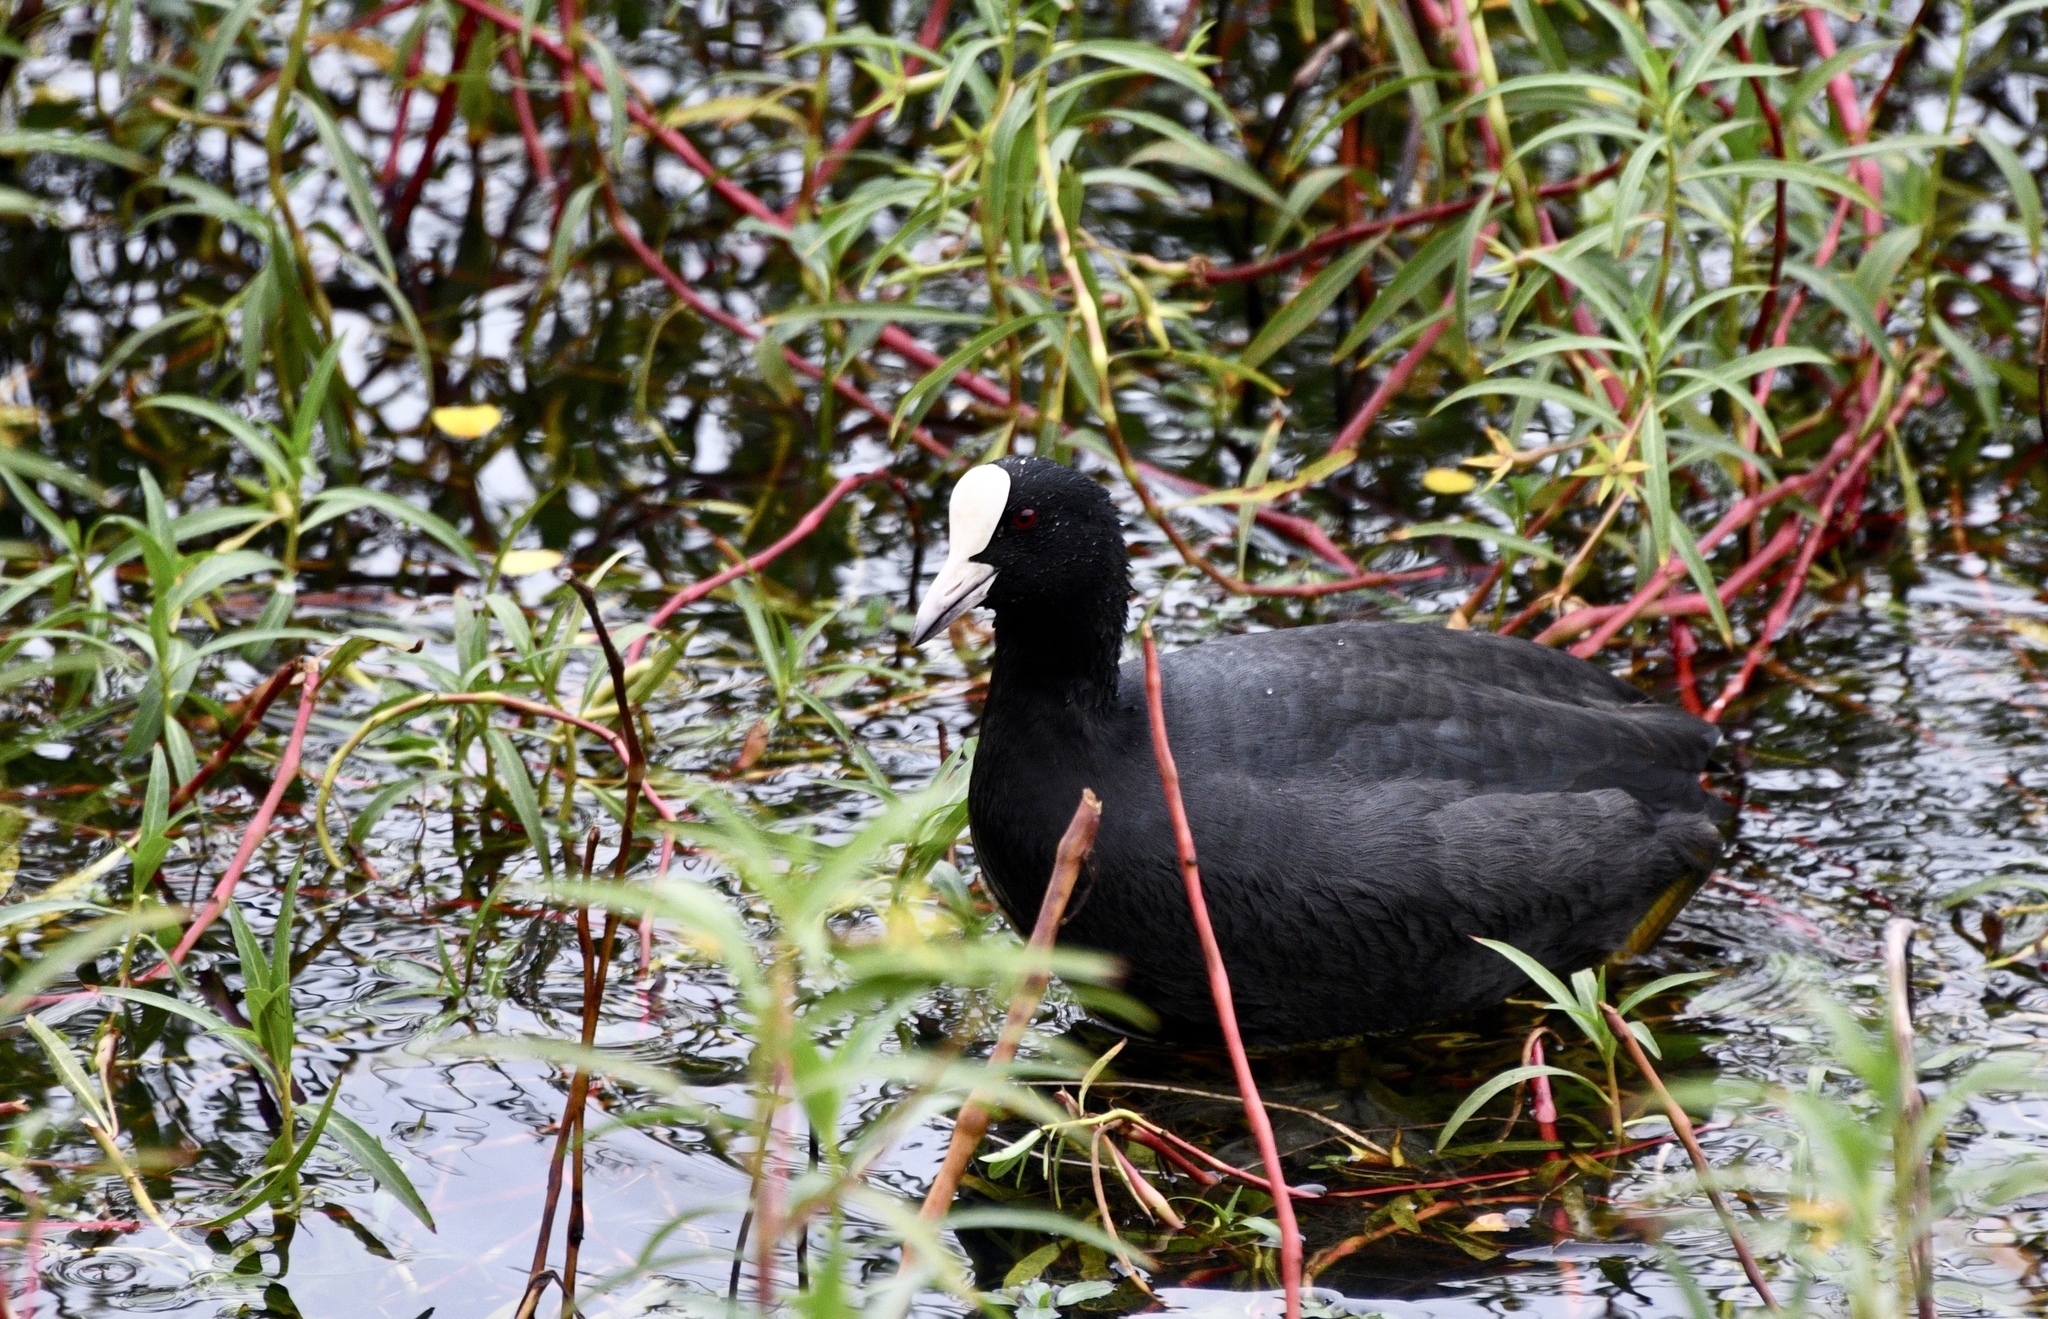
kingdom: Animalia
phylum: Chordata
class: Aves
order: Gruiformes
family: Rallidae
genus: Fulica
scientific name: Fulica atra
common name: Eurasian coot
